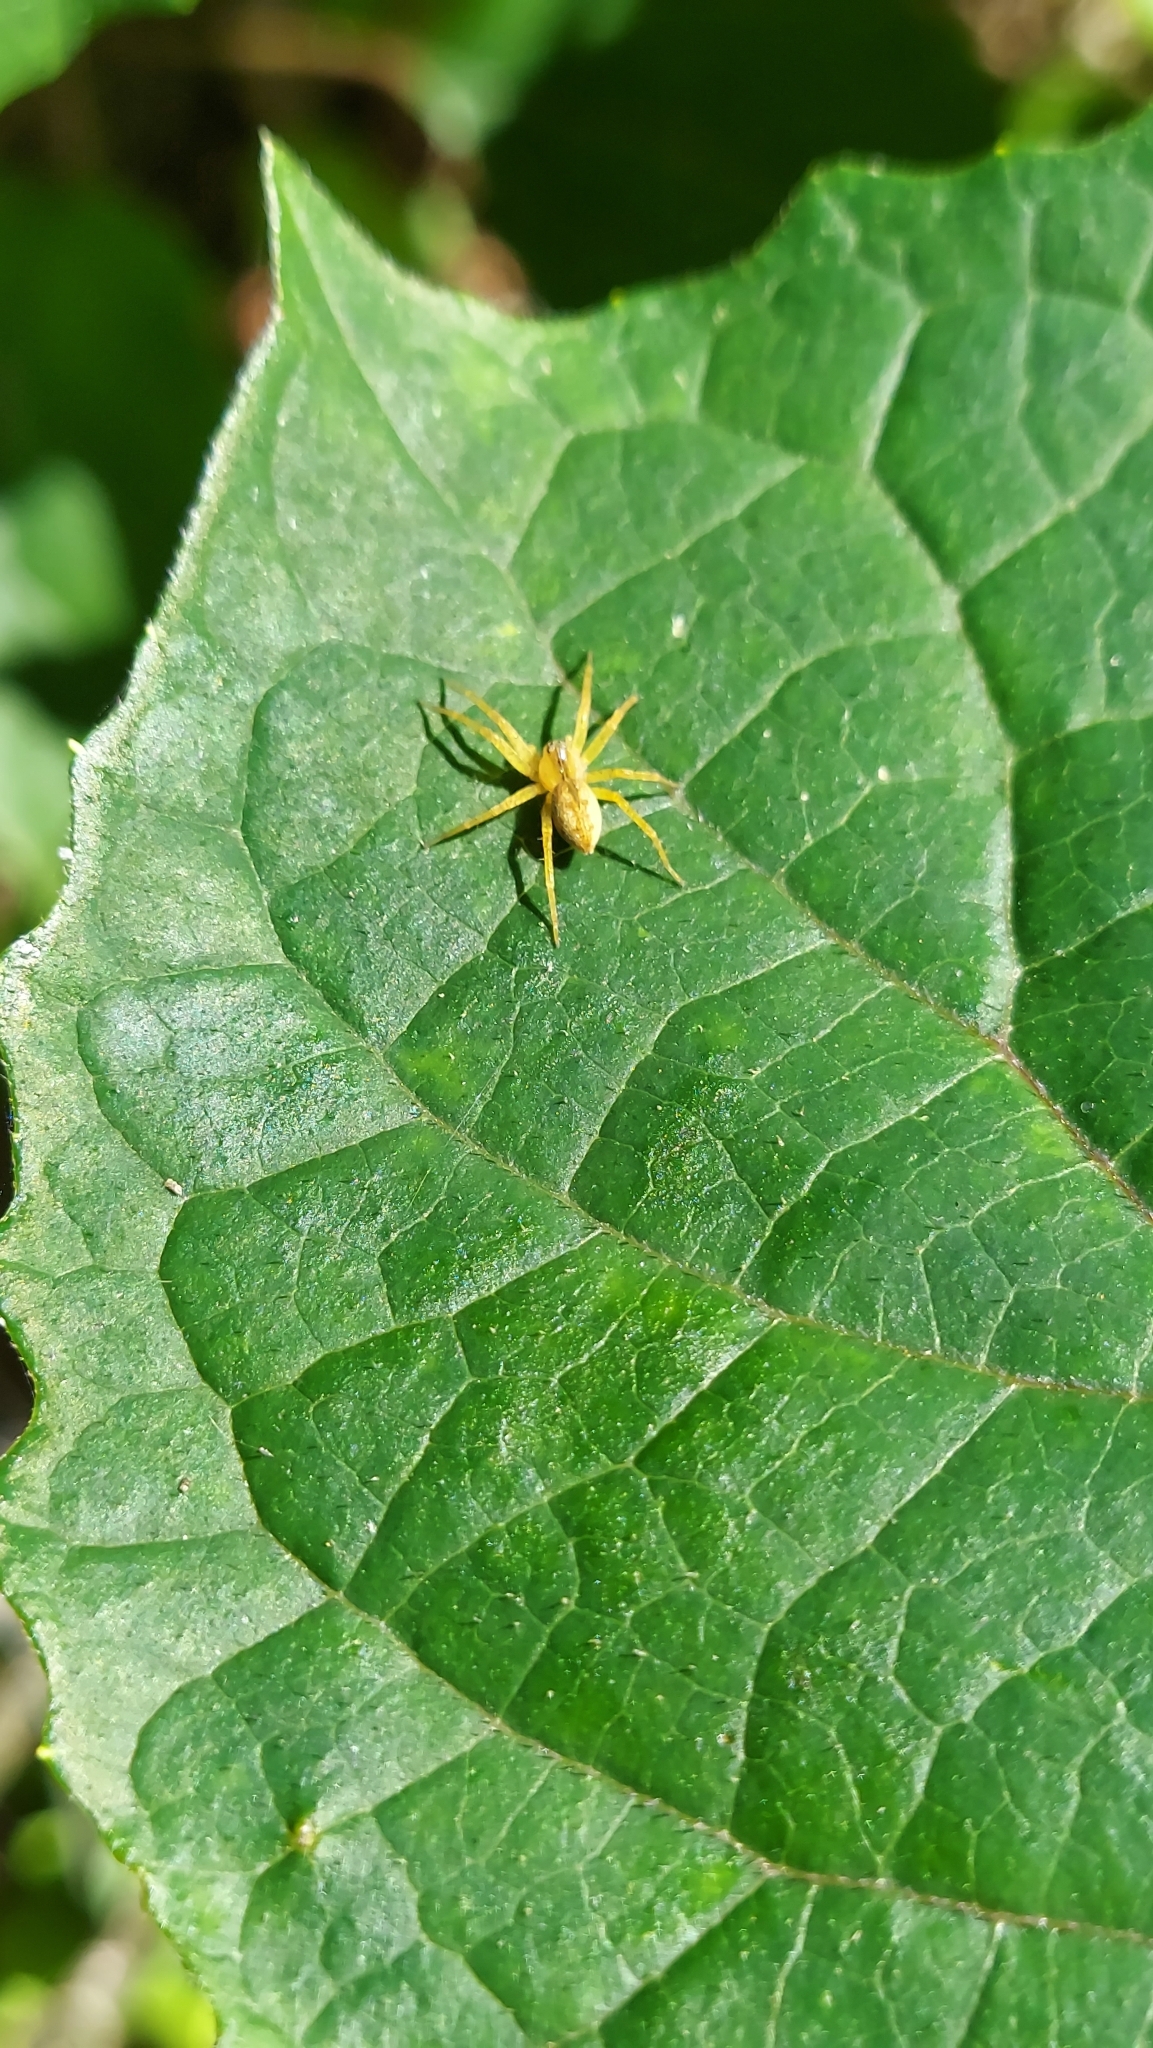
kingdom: Animalia
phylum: Arthropoda
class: Arachnida
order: Araneae
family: Pisauridae
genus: Dolomedes
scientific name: Dolomedes triton
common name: Six-spotted fishing spider
